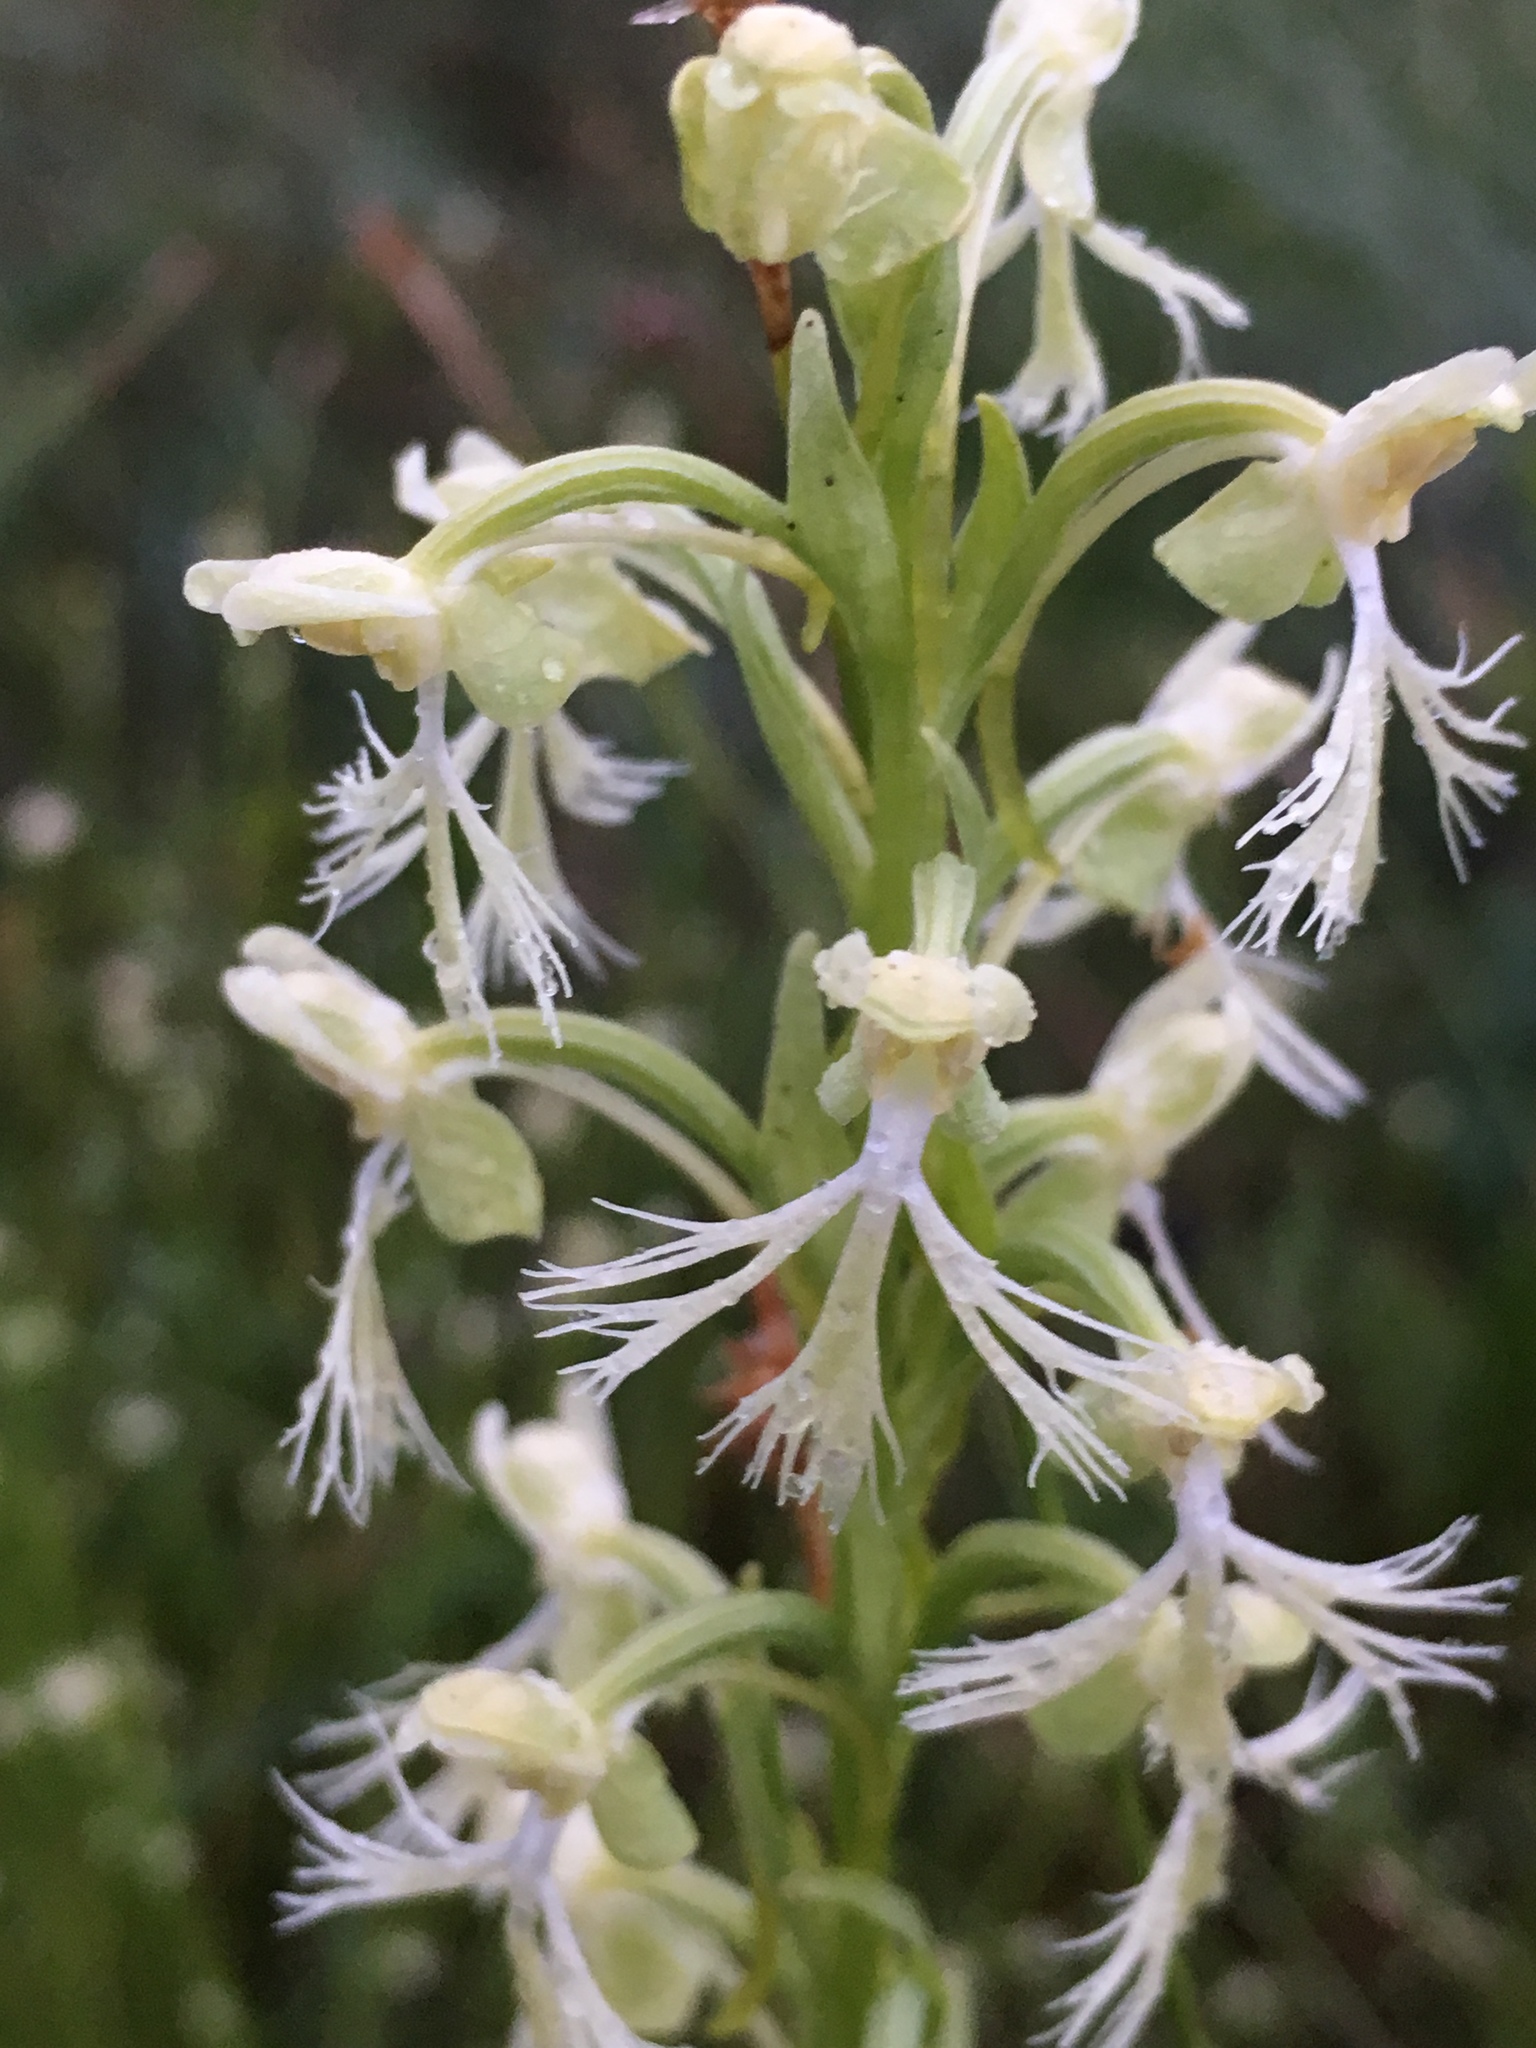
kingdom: Plantae
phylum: Tracheophyta
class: Liliopsida
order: Asparagales
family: Orchidaceae
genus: Platanthera
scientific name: Platanthera lacera
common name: Green fringed orchid
